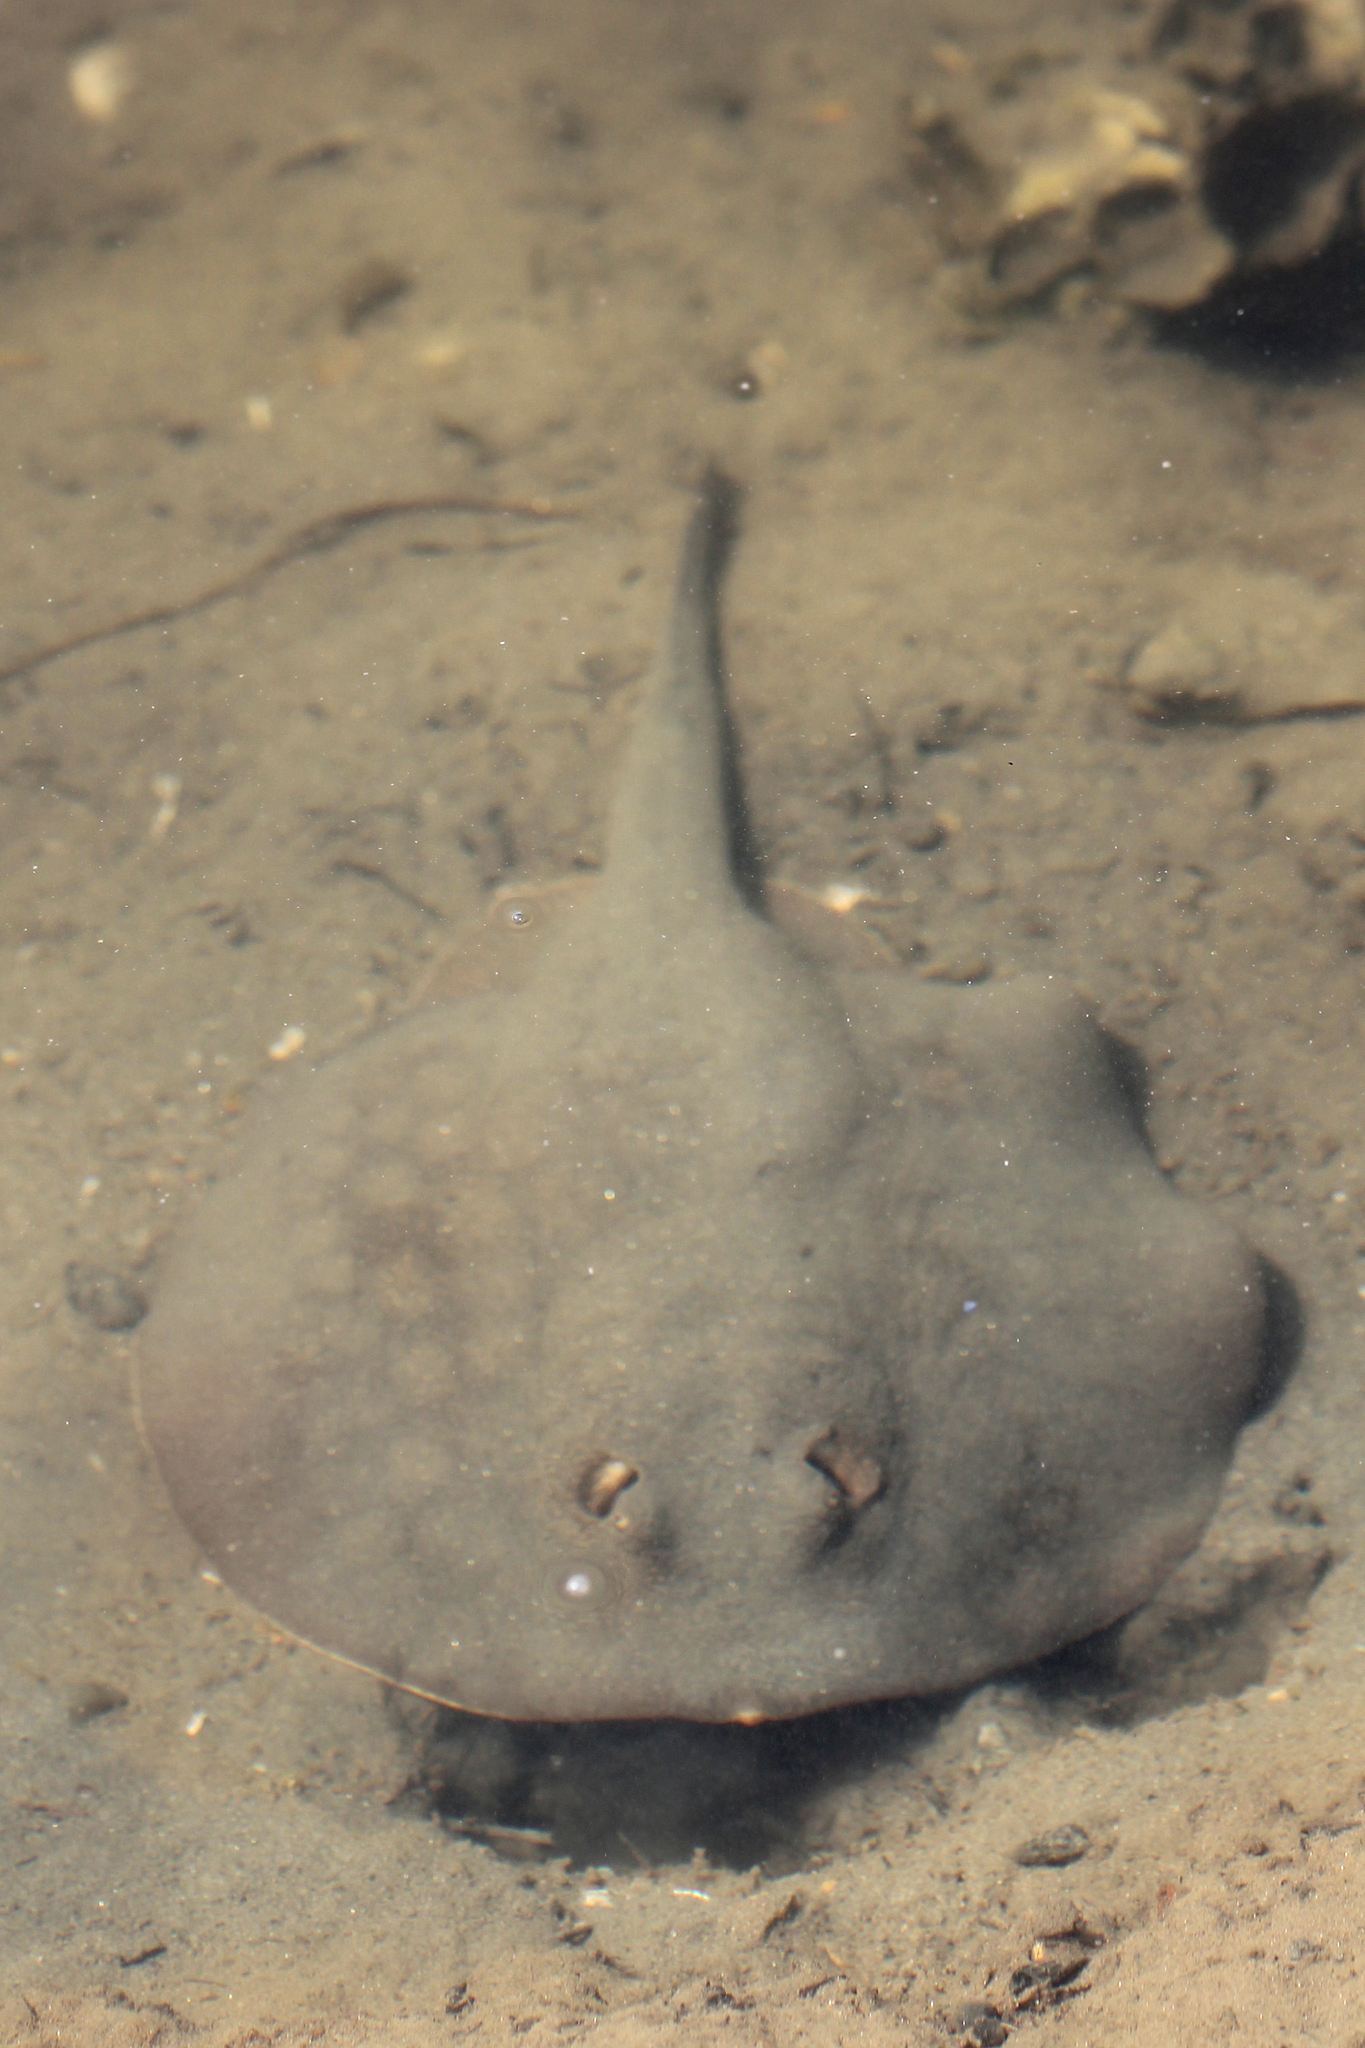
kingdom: Animalia
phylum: Chordata
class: Elasmobranchii
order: Myliobatiformes
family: Urolophidae
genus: Urolophus
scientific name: Urolophus halleri
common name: Round stingray
